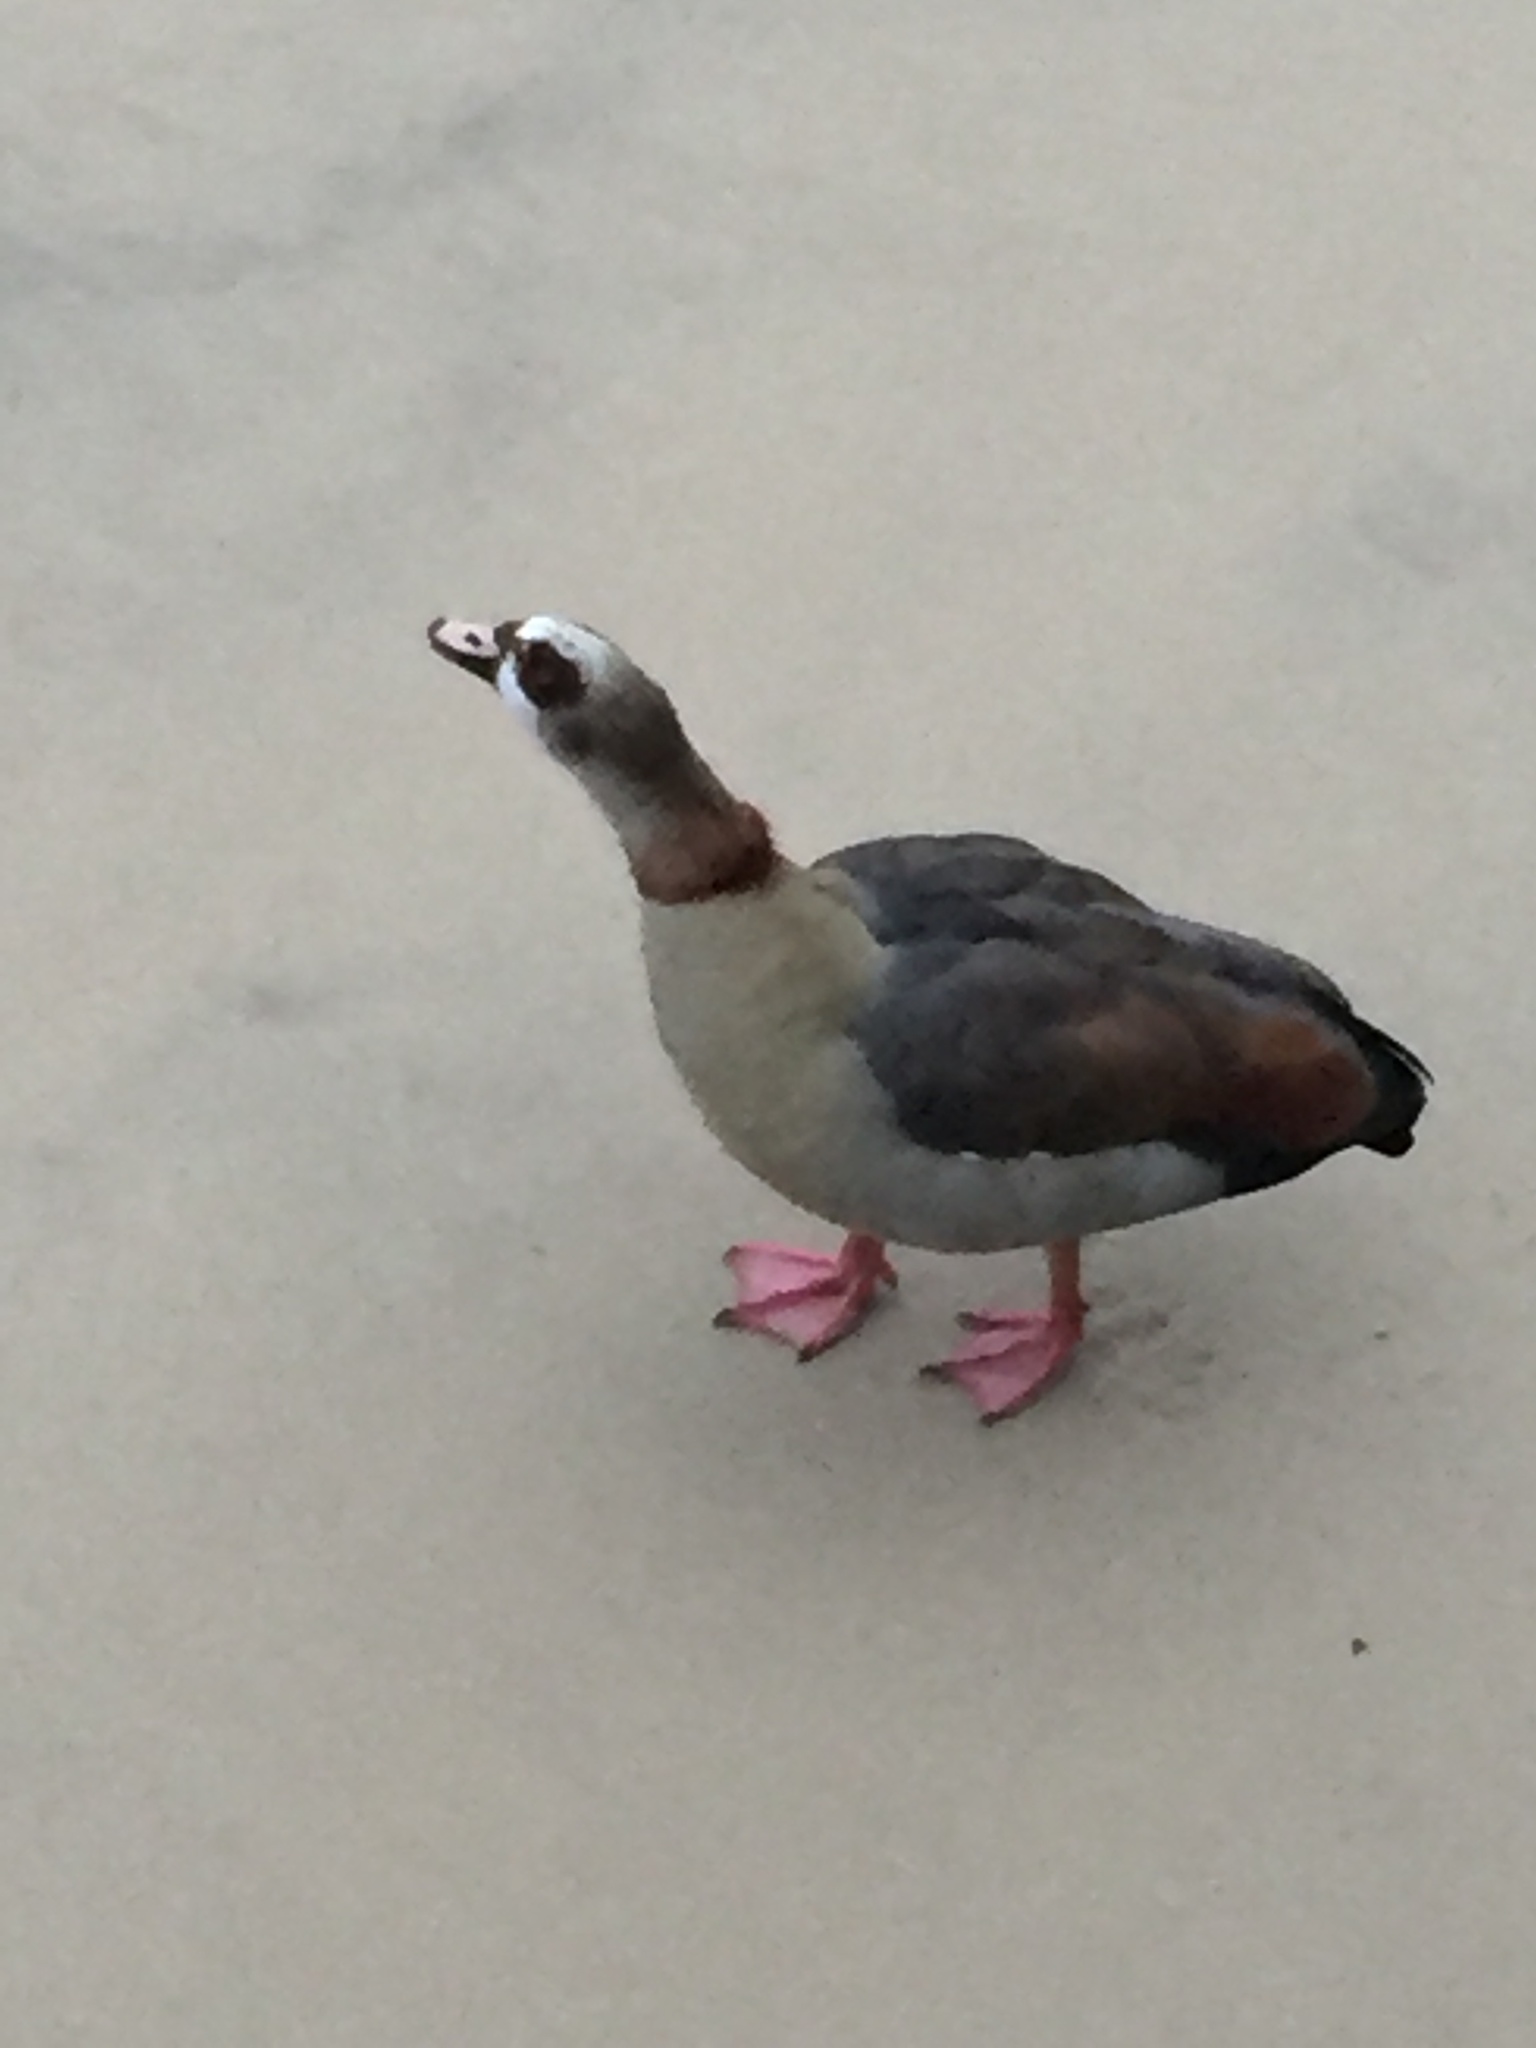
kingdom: Animalia
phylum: Chordata
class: Aves
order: Anseriformes
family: Anatidae
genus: Alopochen
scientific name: Alopochen aegyptiaca
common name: Egyptian goose
